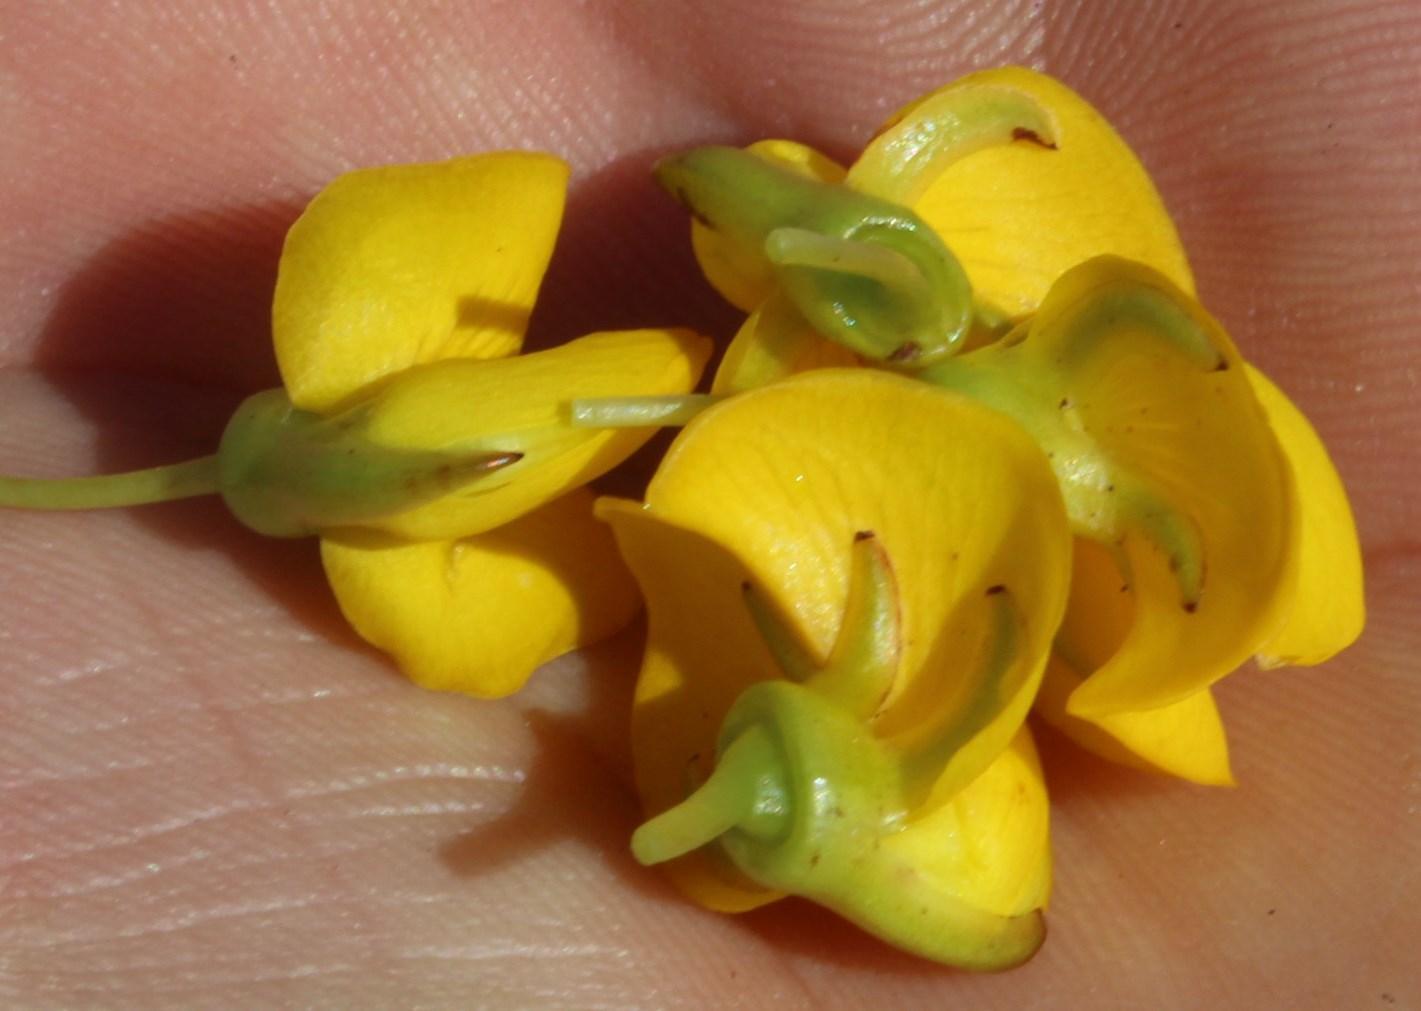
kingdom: Plantae
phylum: Tracheophyta
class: Magnoliopsida
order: Fabales
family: Fabaceae
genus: Cyclopia
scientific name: Cyclopia genistoides
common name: Honeybush tea
